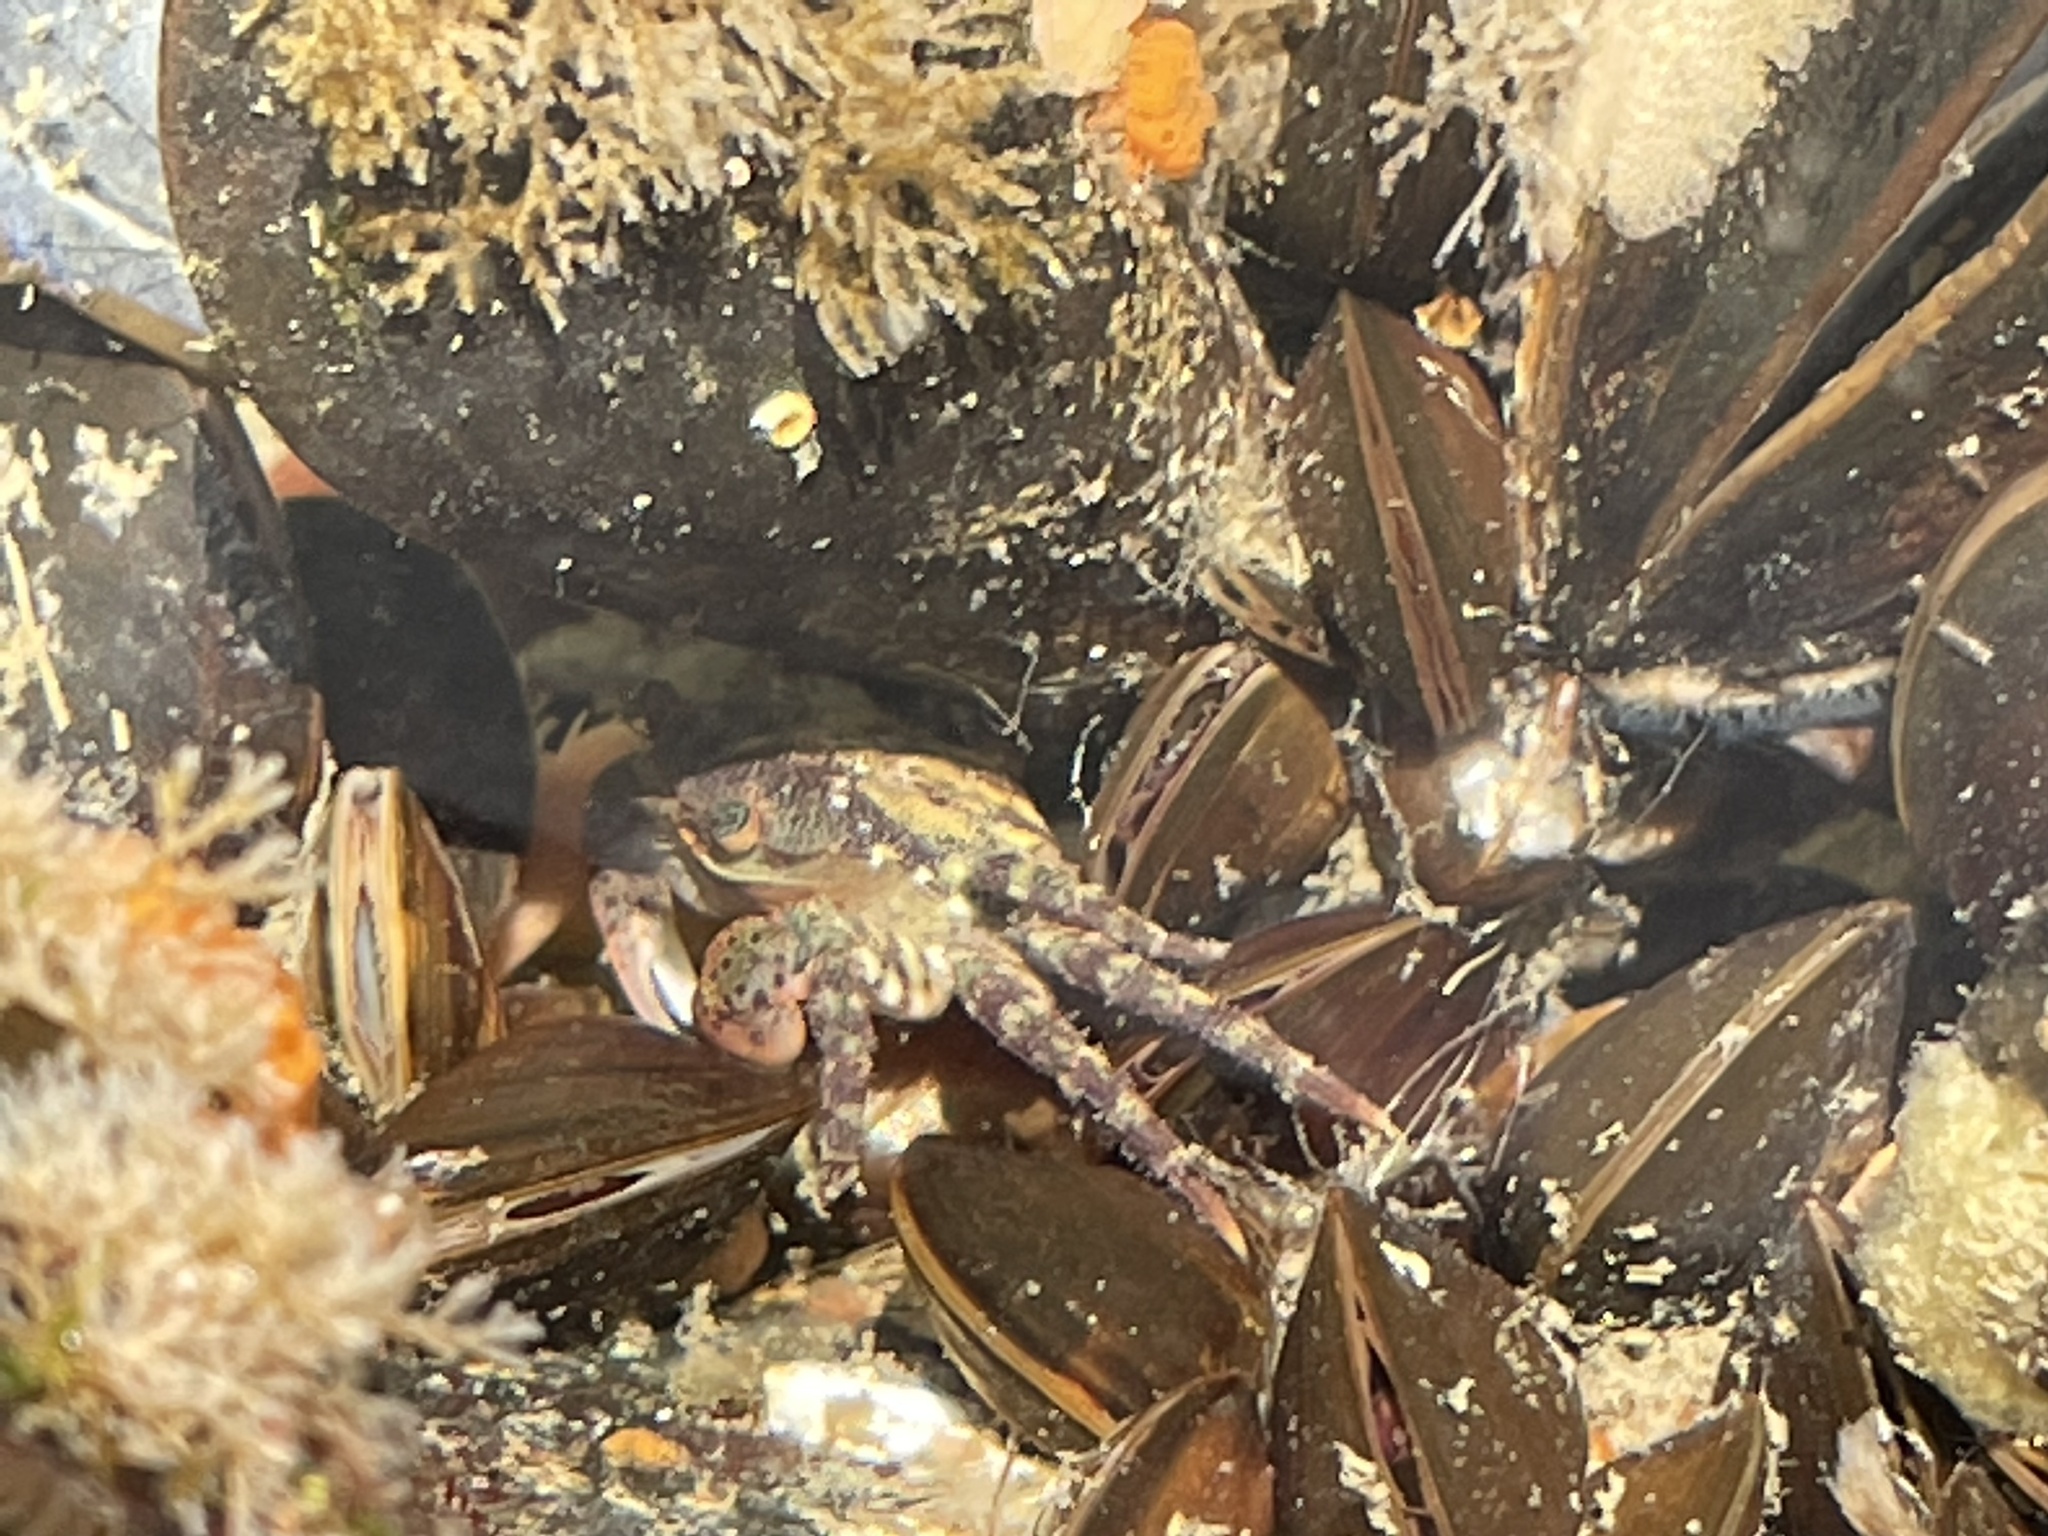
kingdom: Animalia
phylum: Arthropoda
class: Malacostraca
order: Decapoda
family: Varunidae
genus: Hemigrapsus
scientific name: Hemigrapsus sanguineus
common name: Asian shore crab
